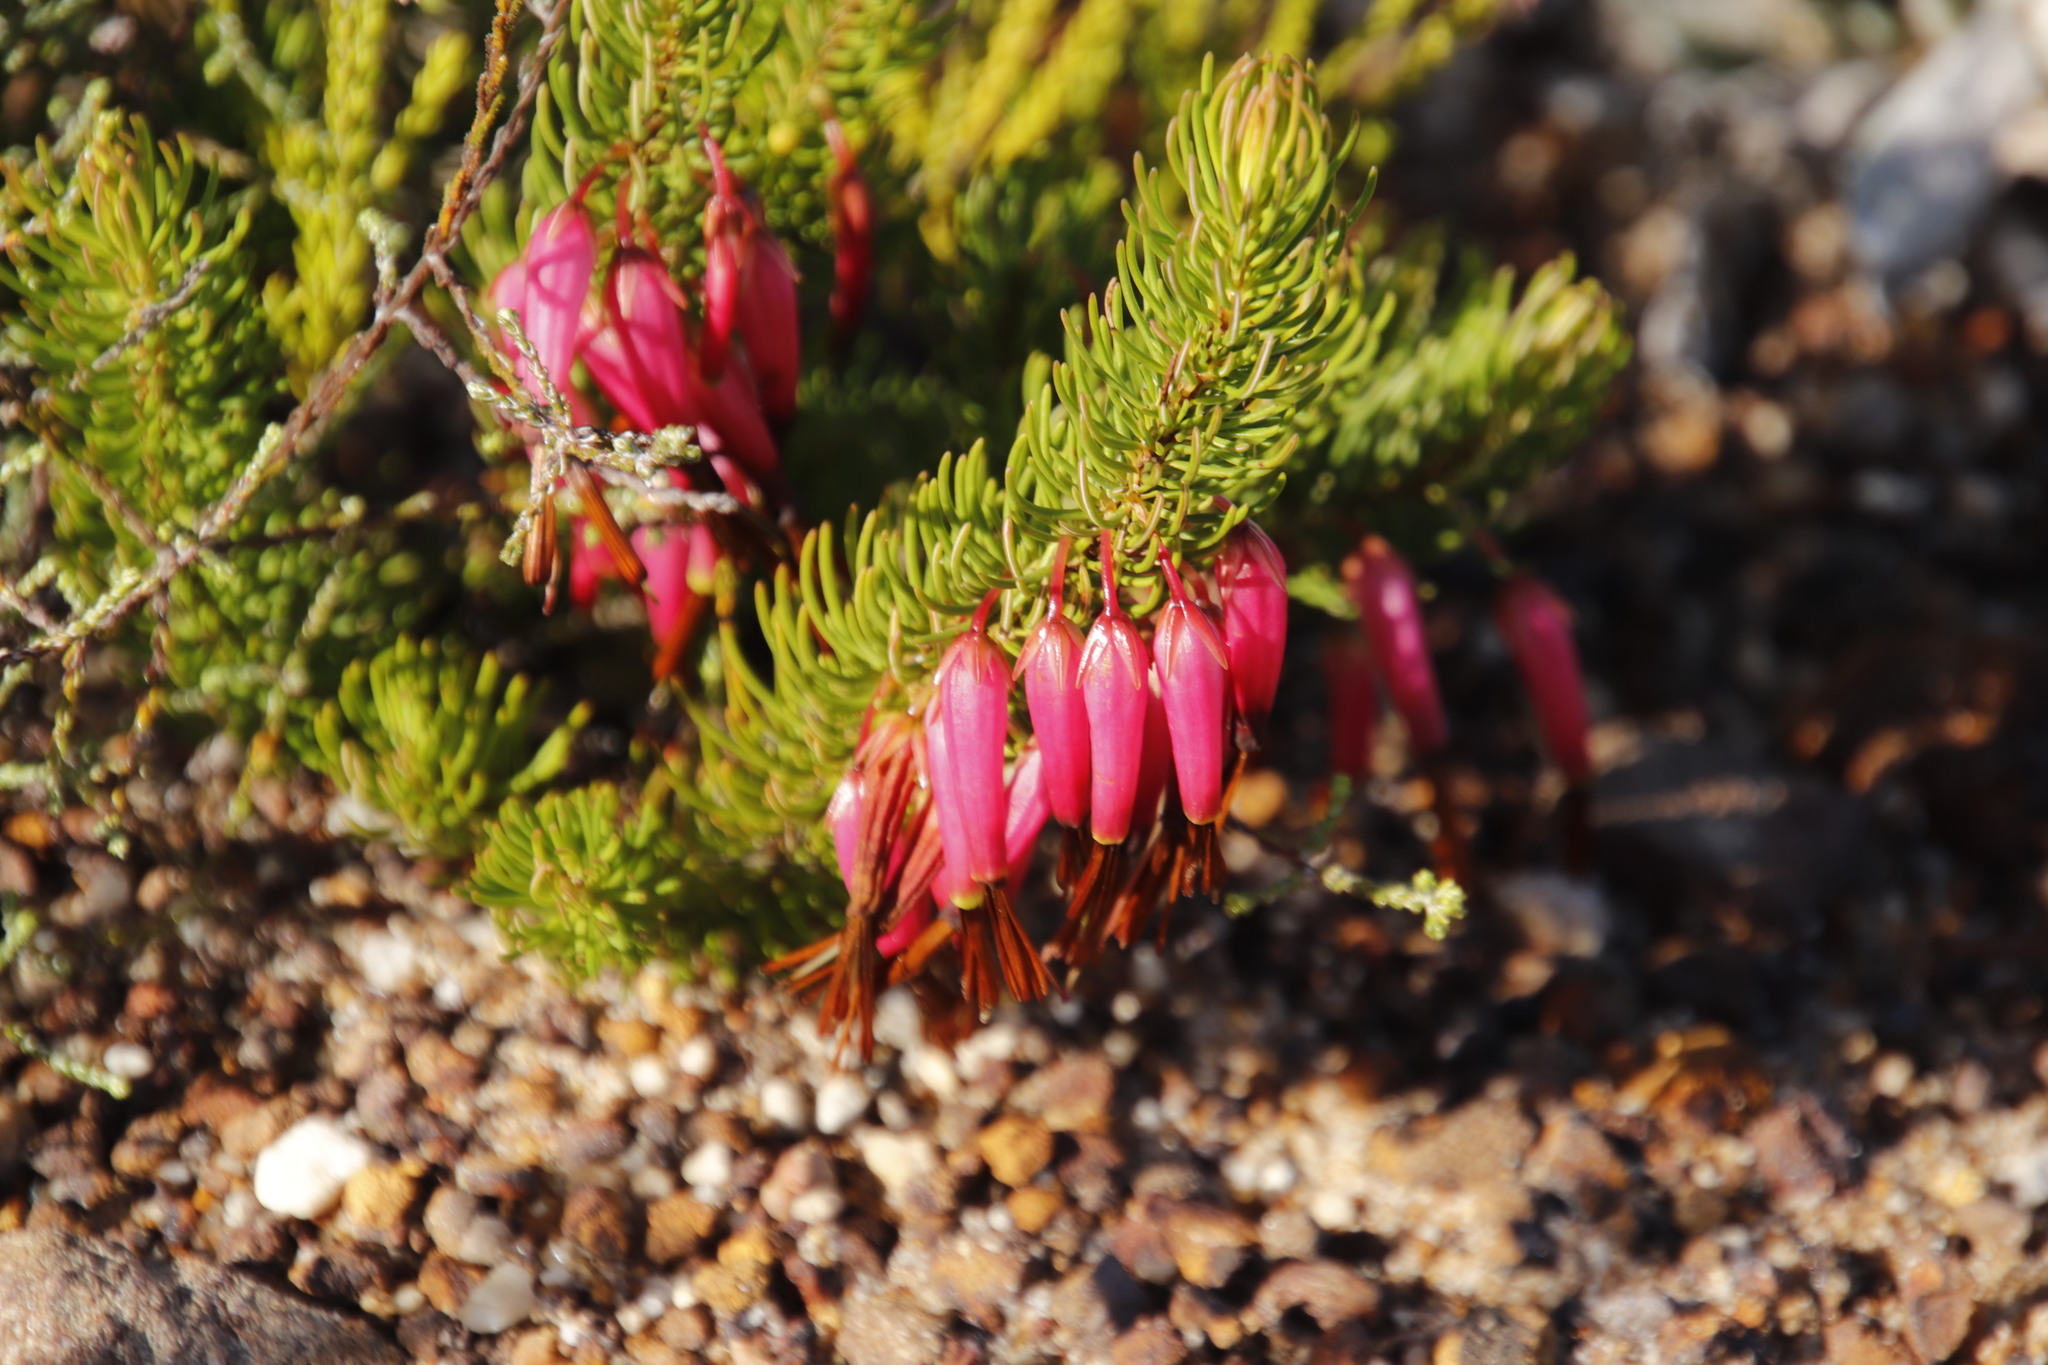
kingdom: Plantae
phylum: Tracheophyta
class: Magnoliopsida
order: Ericales
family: Ericaceae
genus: Erica
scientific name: Erica plukenetii
